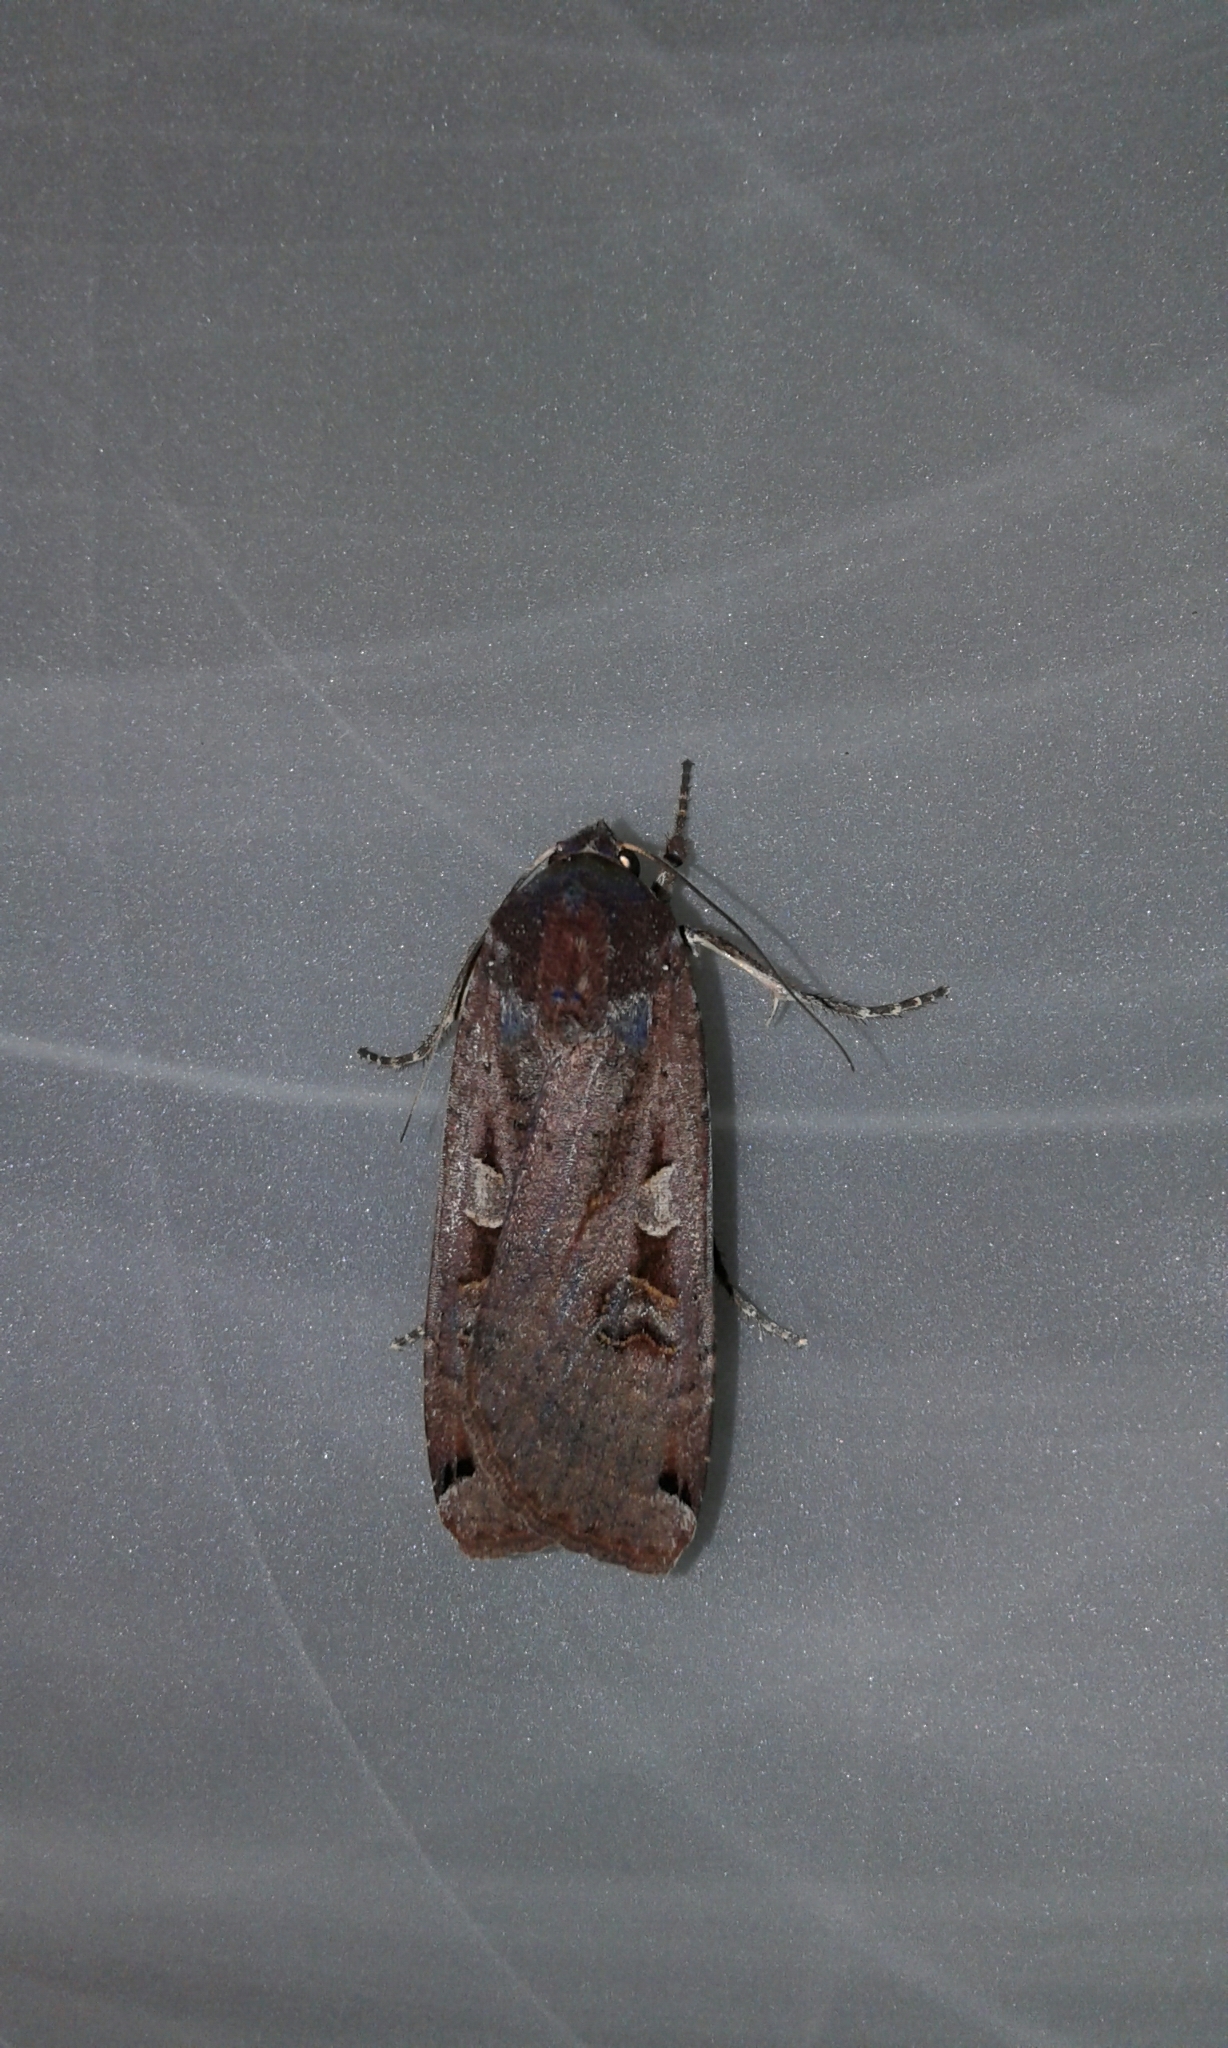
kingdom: Animalia
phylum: Arthropoda
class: Insecta
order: Lepidoptera
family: Noctuidae
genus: Noctua
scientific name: Noctua pronuba
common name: Large yellow underwing
